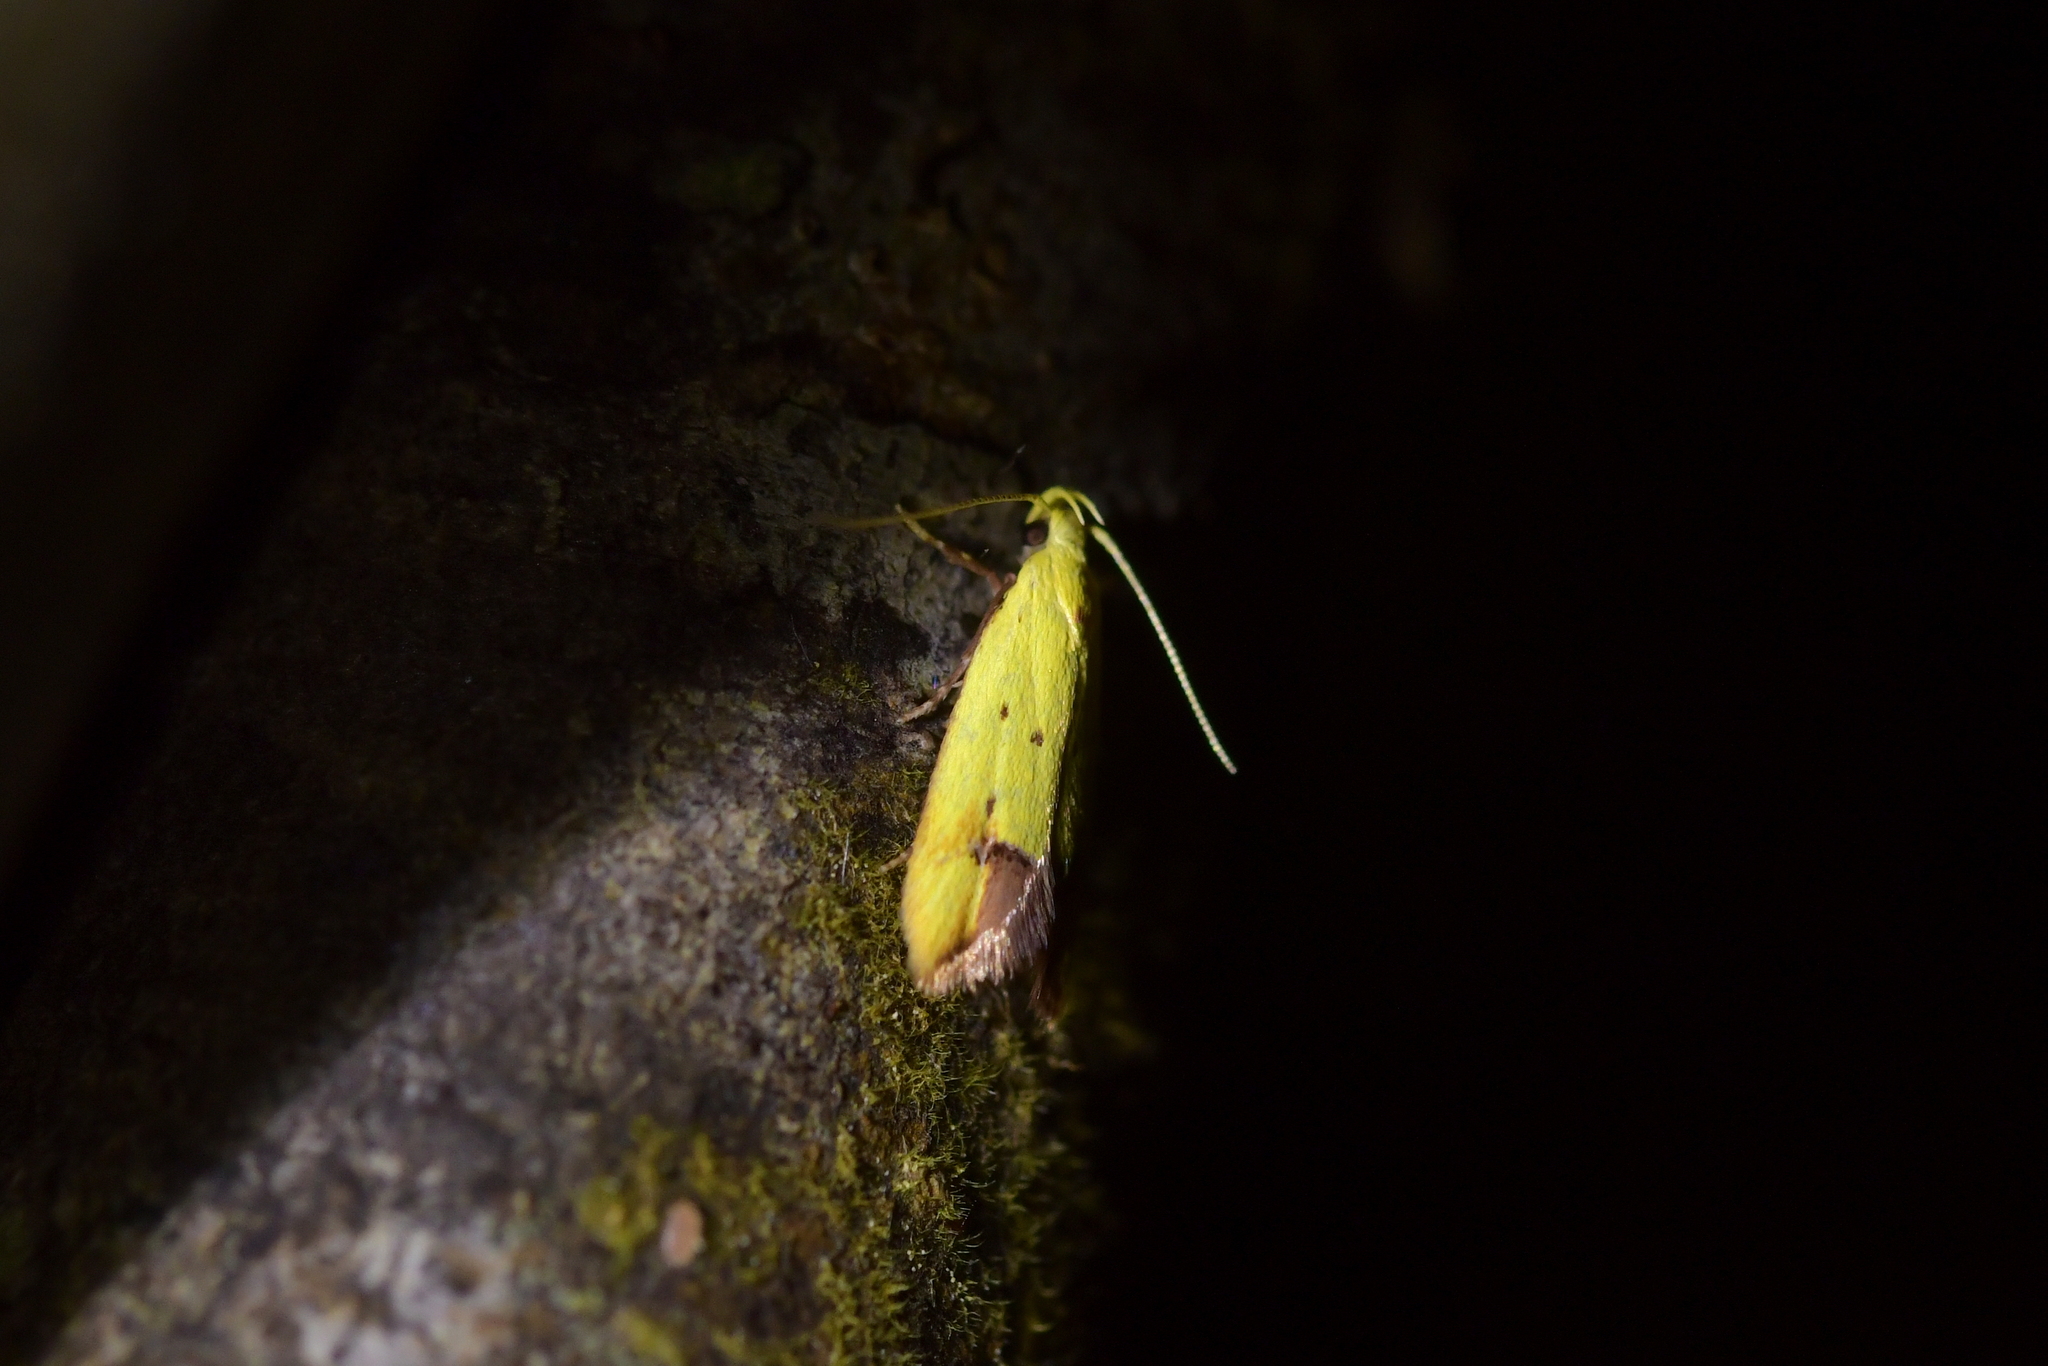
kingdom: Animalia
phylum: Arthropoda
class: Insecta
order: Lepidoptera
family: Oecophoridae
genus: Gymnobathra
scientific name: Gymnobathra flavidella
